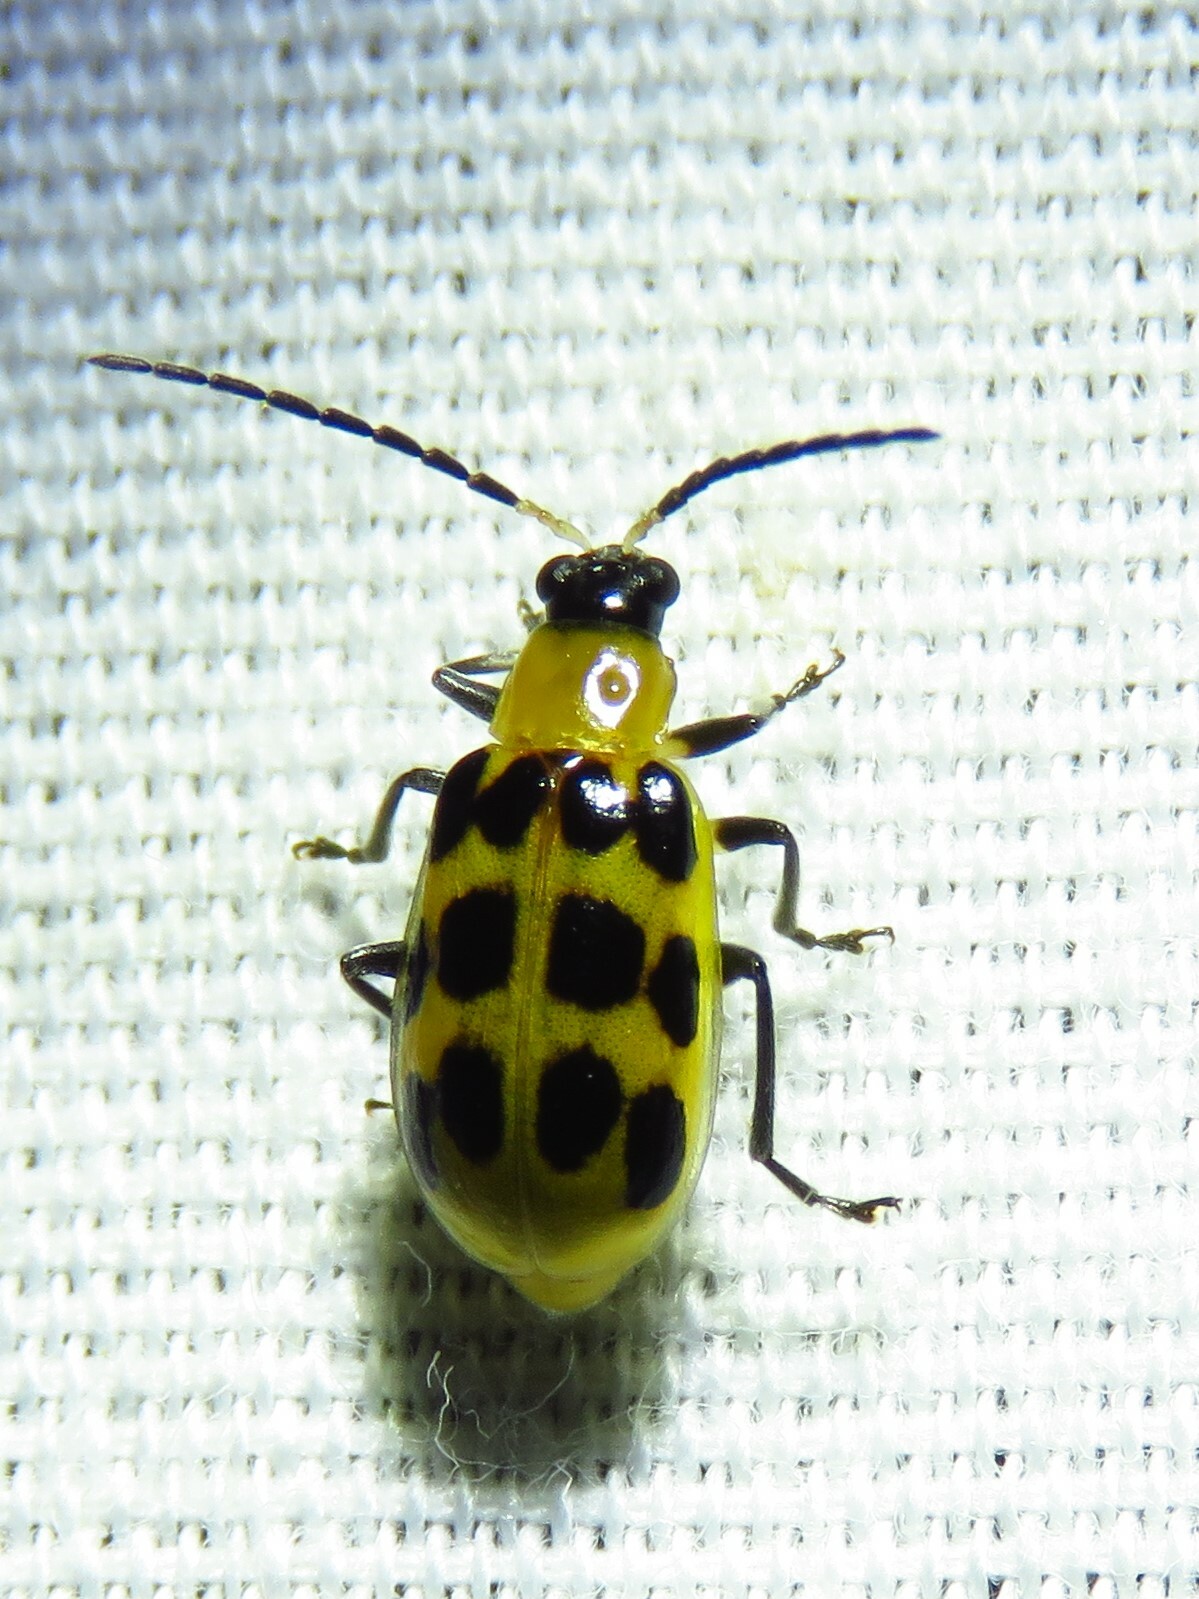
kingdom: Animalia
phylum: Arthropoda
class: Insecta
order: Coleoptera
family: Chrysomelidae
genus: Diabrotica
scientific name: Diabrotica undecimpunctata
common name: Spotted cucumber beetle
